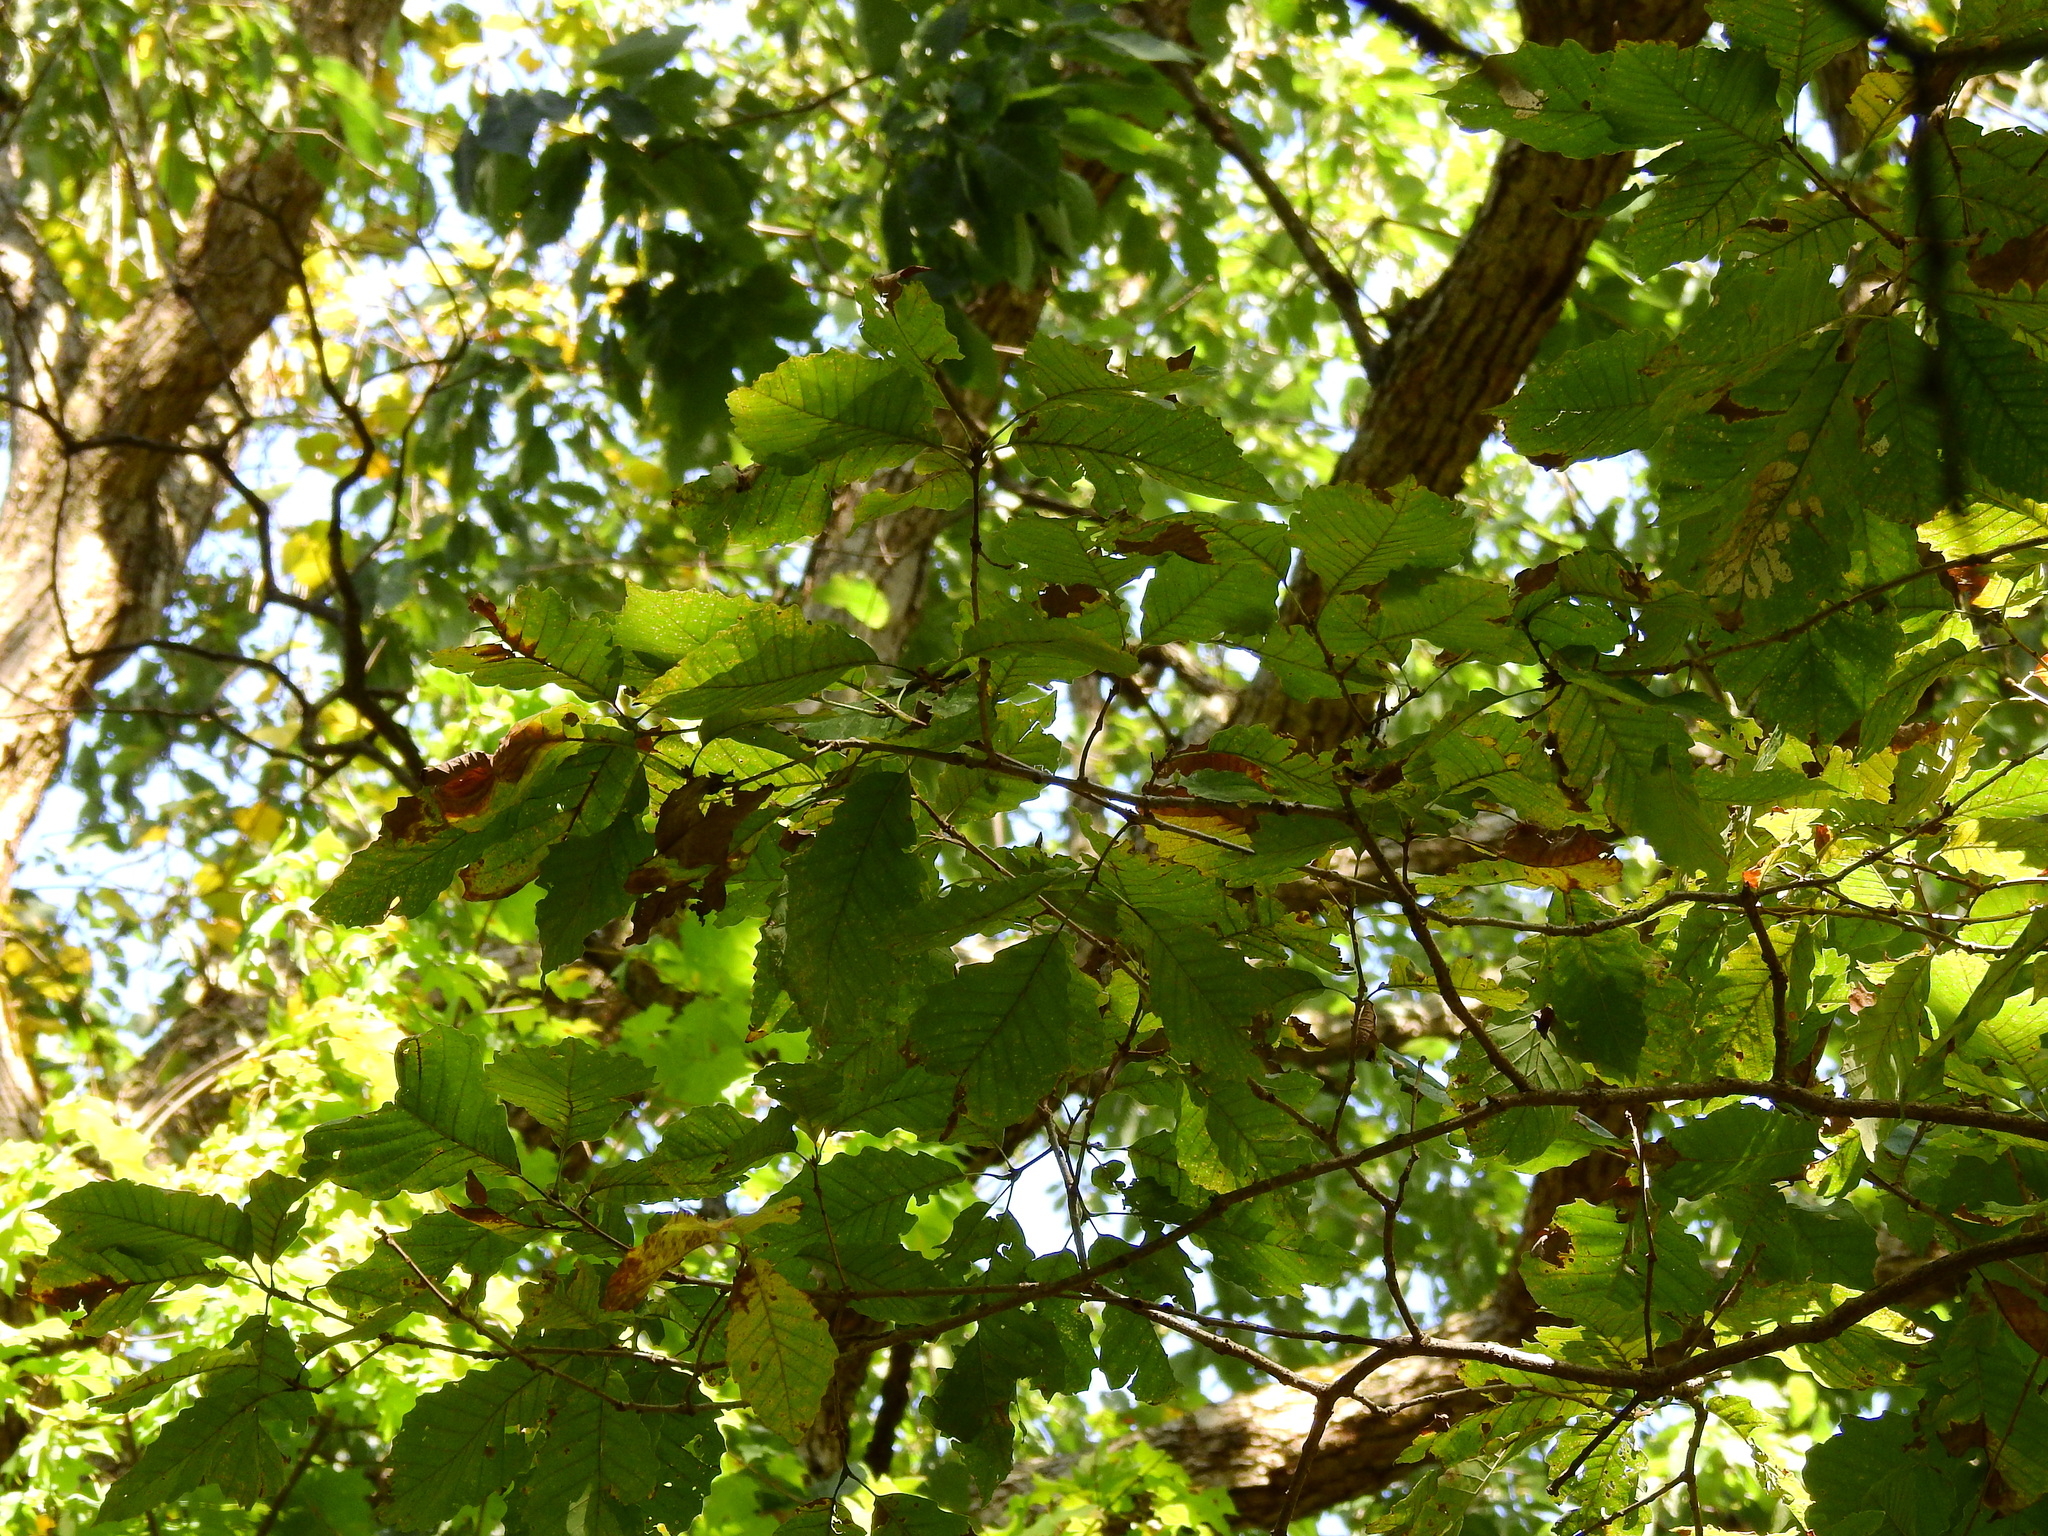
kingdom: Plantae
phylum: Tracheophyta
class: Magnoliopsida
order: Fagales
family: Fagaceae
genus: Quercus
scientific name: Quercus muehlenbergii
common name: Chinkapin oak
